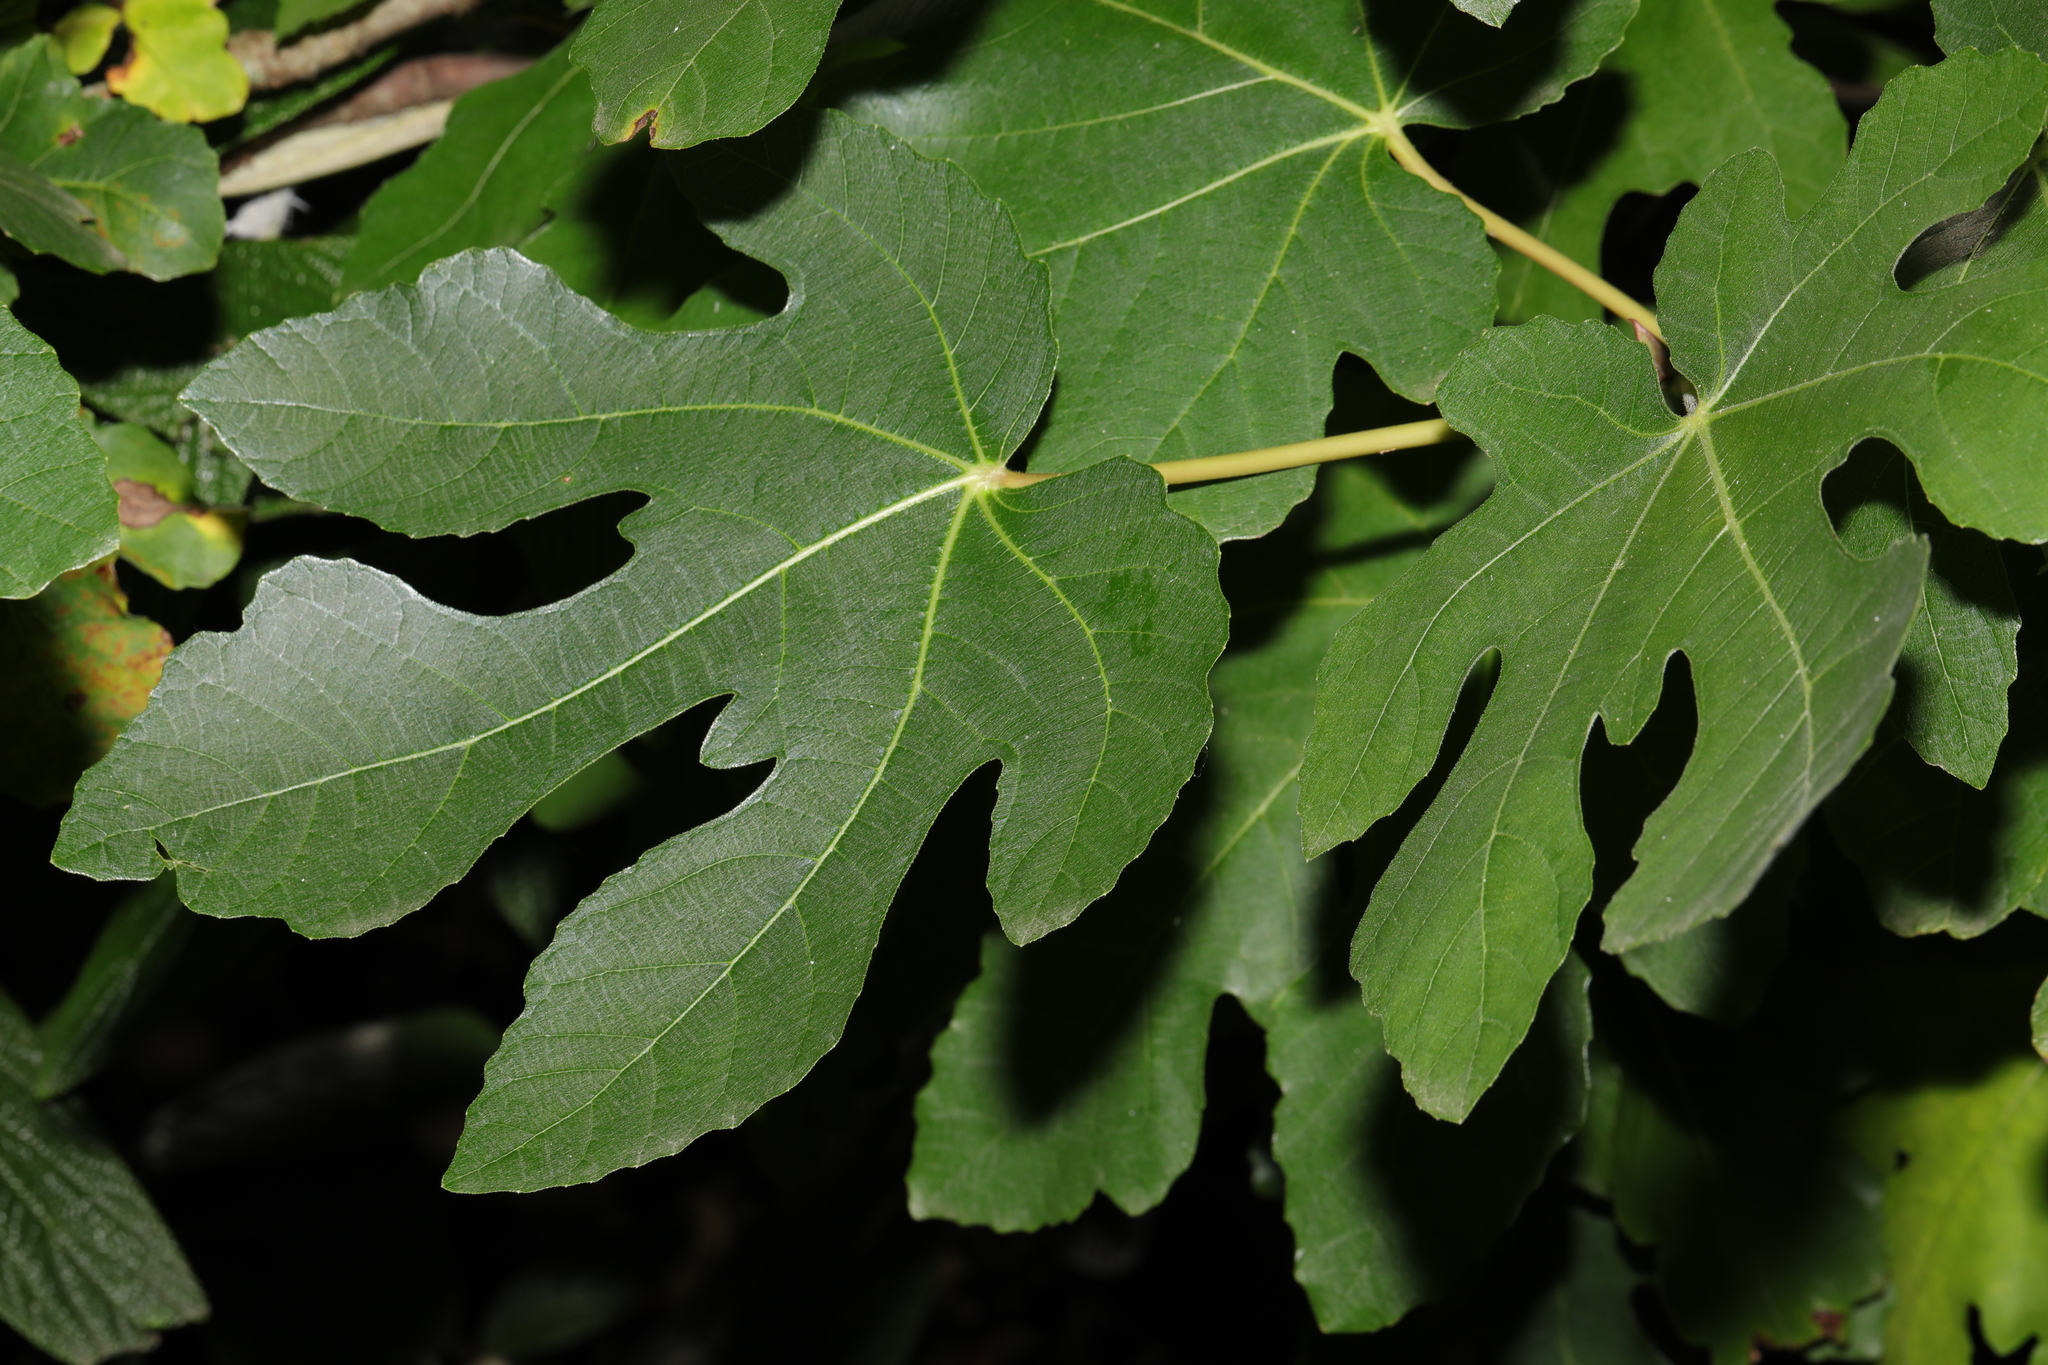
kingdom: Plantae
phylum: Tracheophyta
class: Magnoliopsida
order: Rosales
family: Moraceae
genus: Ficus
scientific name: Ficus carica
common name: Fig
